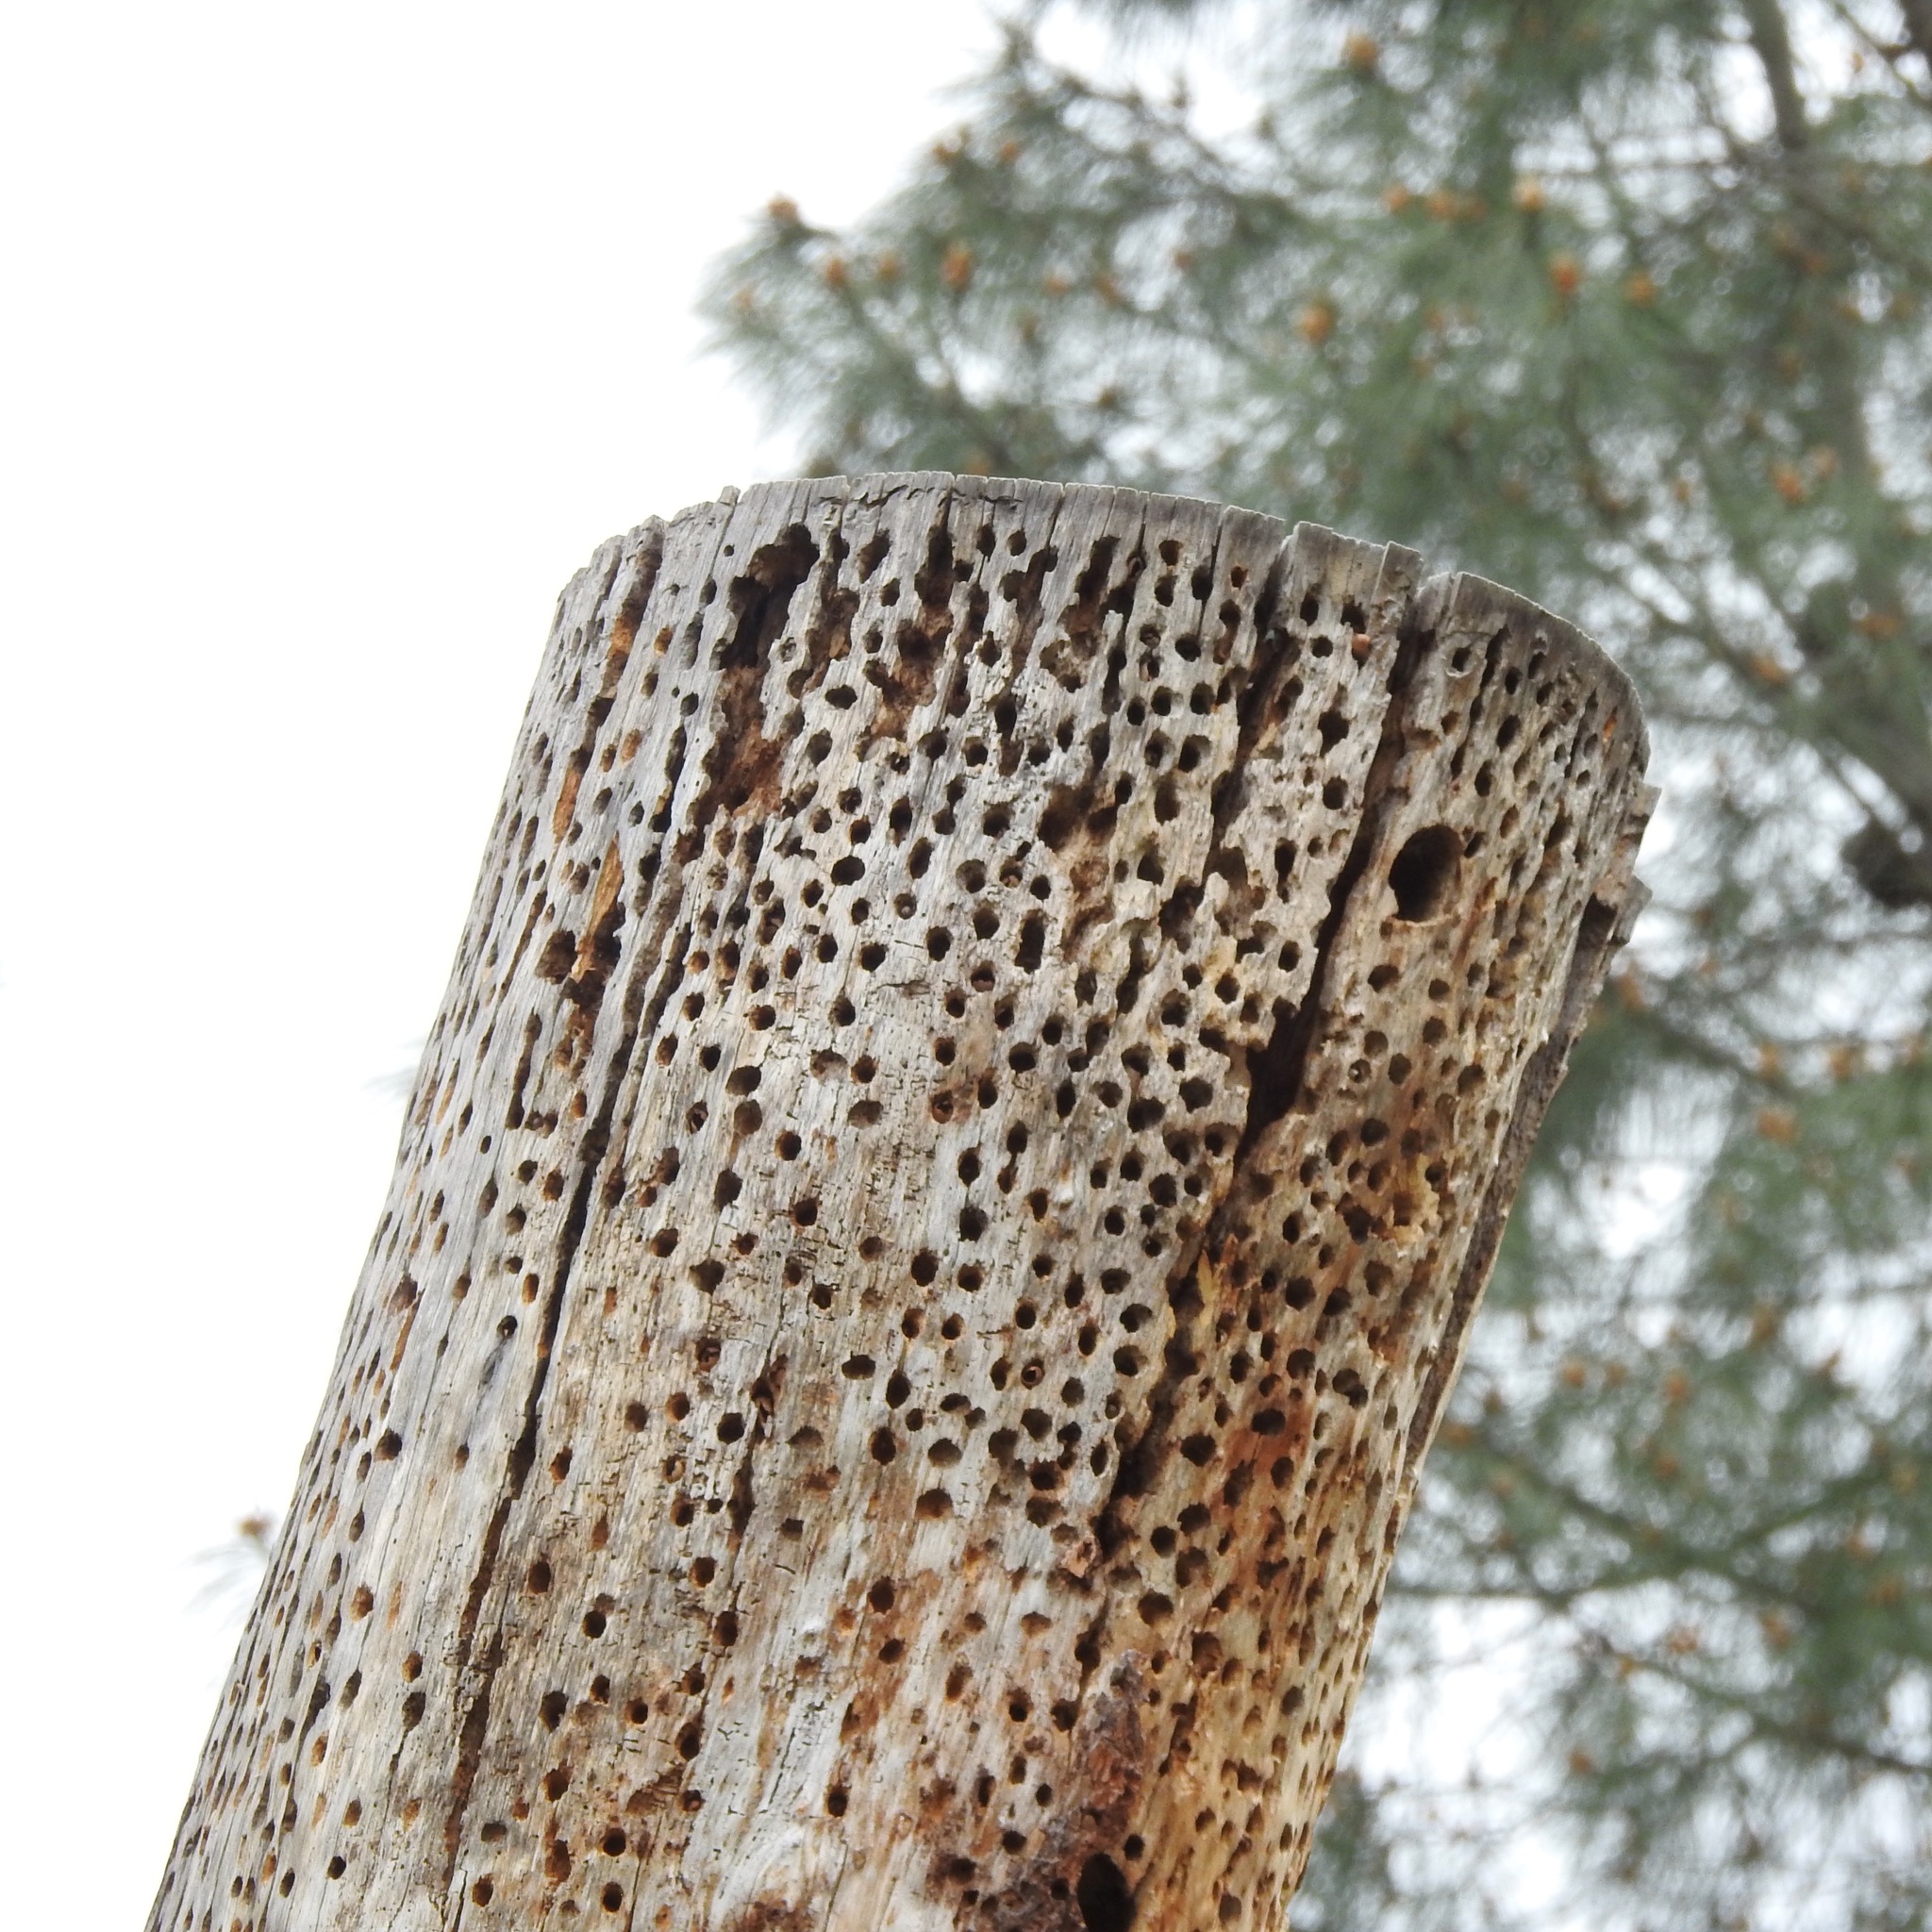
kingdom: Animalia
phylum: Chordata
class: Aves
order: Piciformes
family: Picidae
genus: Melanerpes
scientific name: Melanerpes formicivorus
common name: Acorn woodpecker
